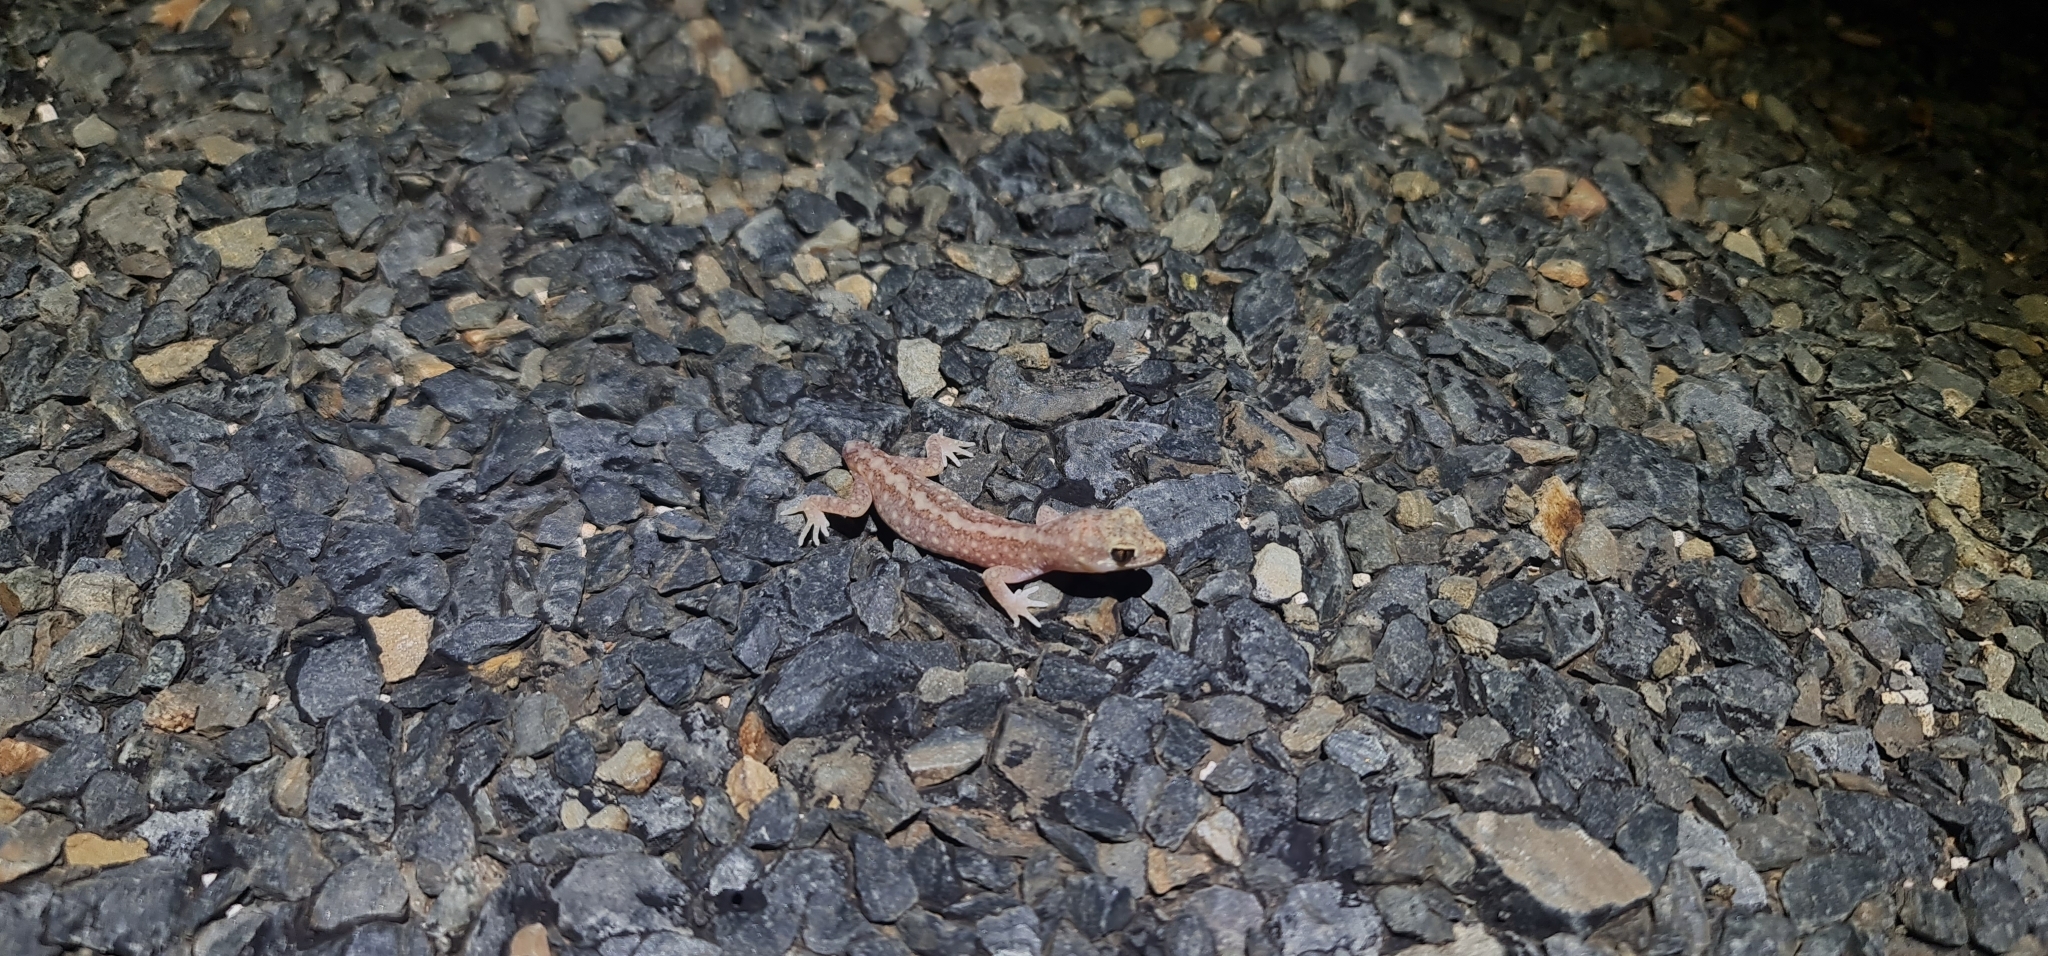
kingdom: Animalia
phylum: Chordata
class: Squamata
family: Diplodactylidae
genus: Lucasium
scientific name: Lucasium damaeum
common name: Beaded gecko
